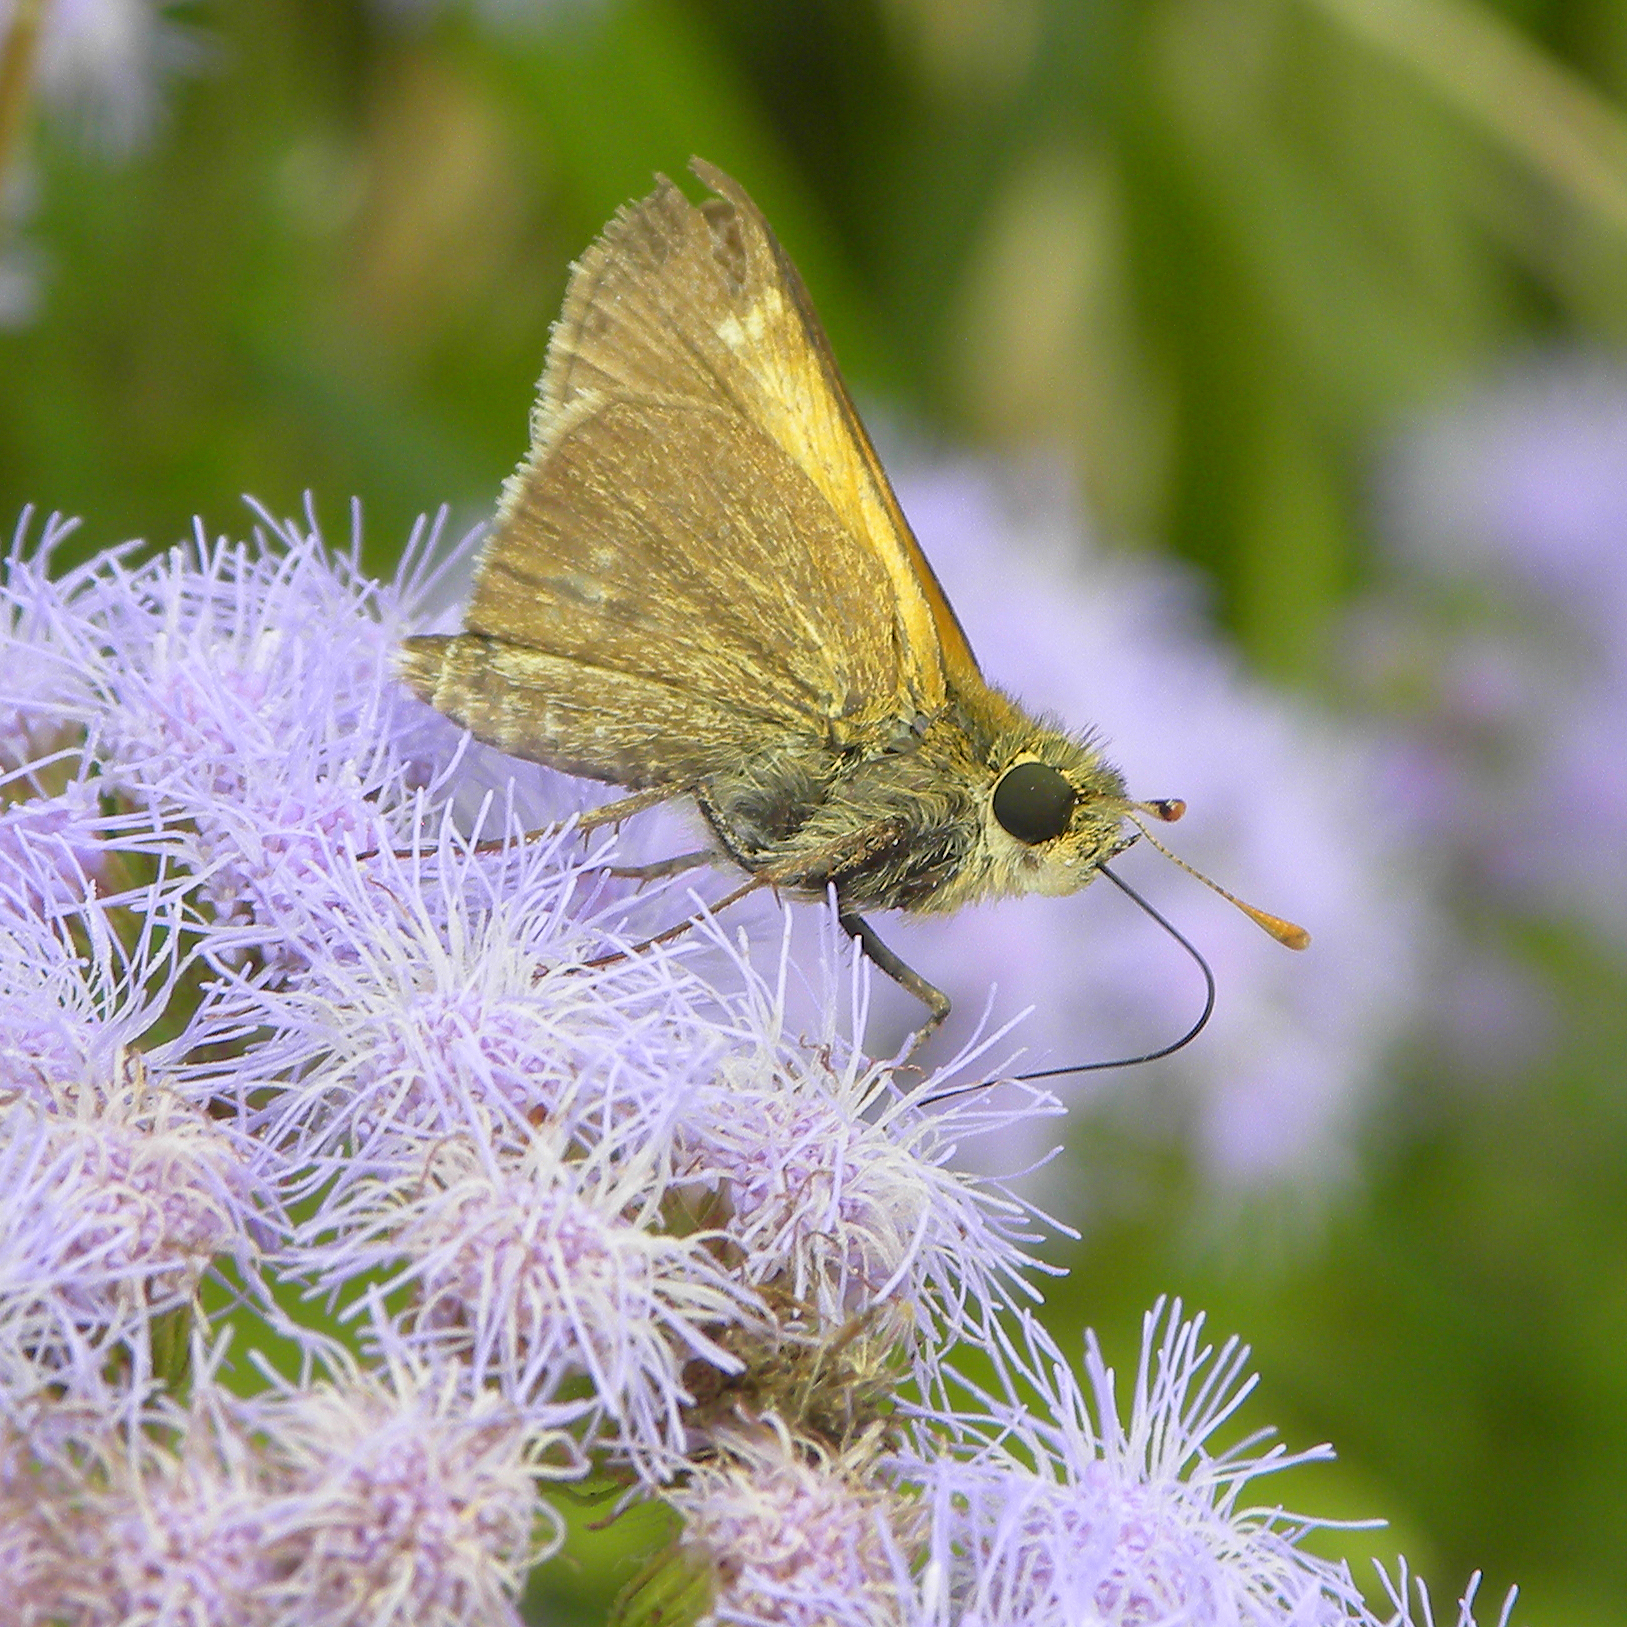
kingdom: Animalia
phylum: Arthropoda
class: Insecta
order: Lepidoptera
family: Hesperiidae
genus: Polites
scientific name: Polites themistocles
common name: Tawny-edged skipper
